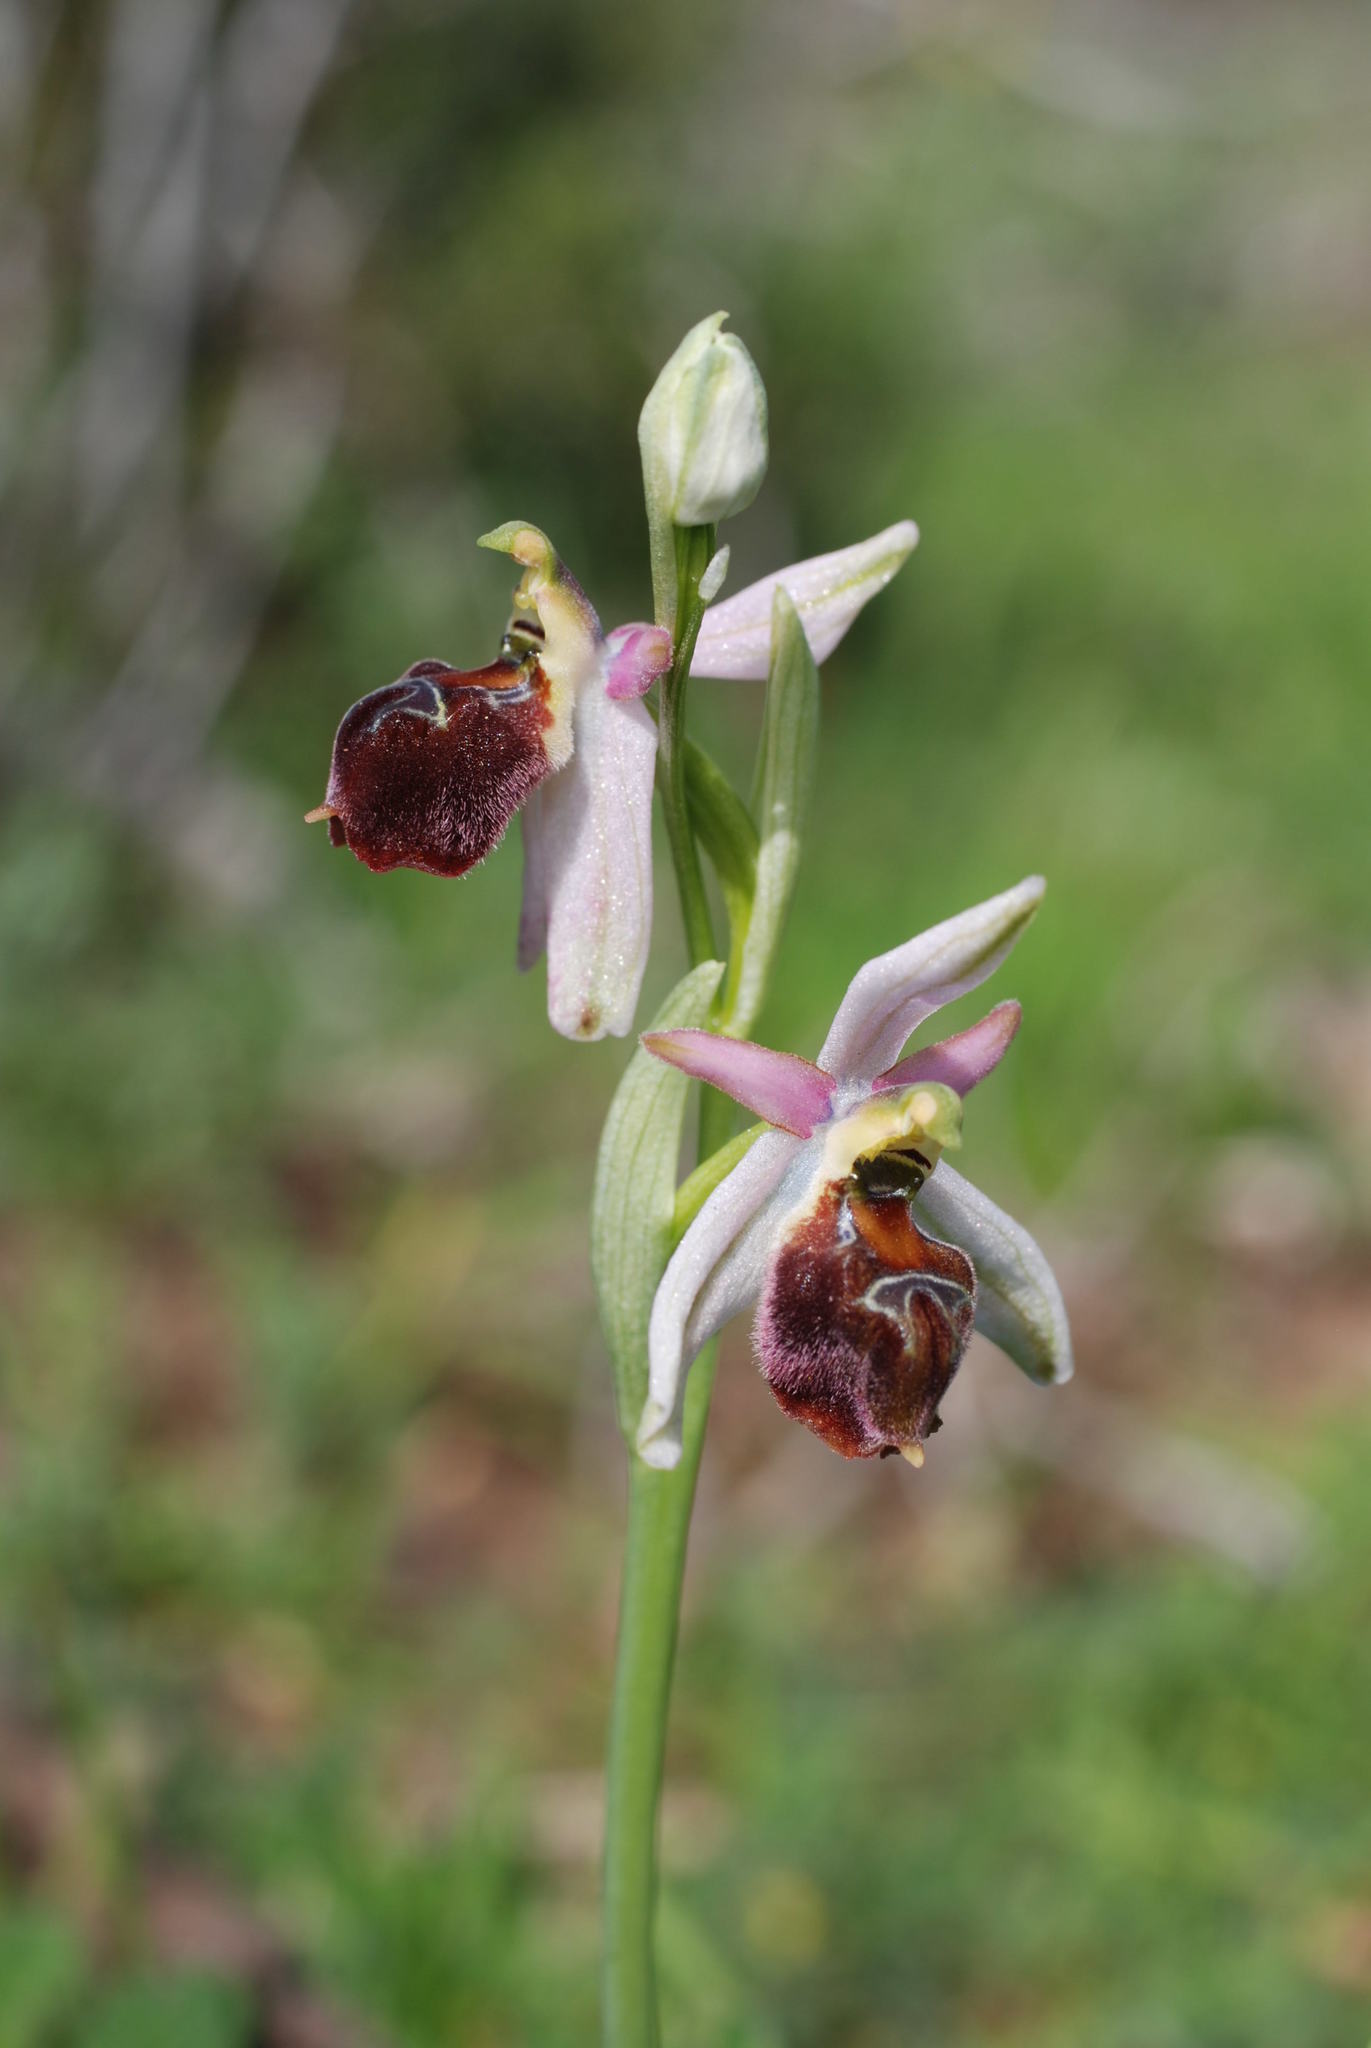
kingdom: Plantae
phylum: Tracheophyta
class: Liliopsida
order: Asparagales
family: Orchidaceae
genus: Ophrys
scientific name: Ophrys argolica
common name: Argolic ophrys
